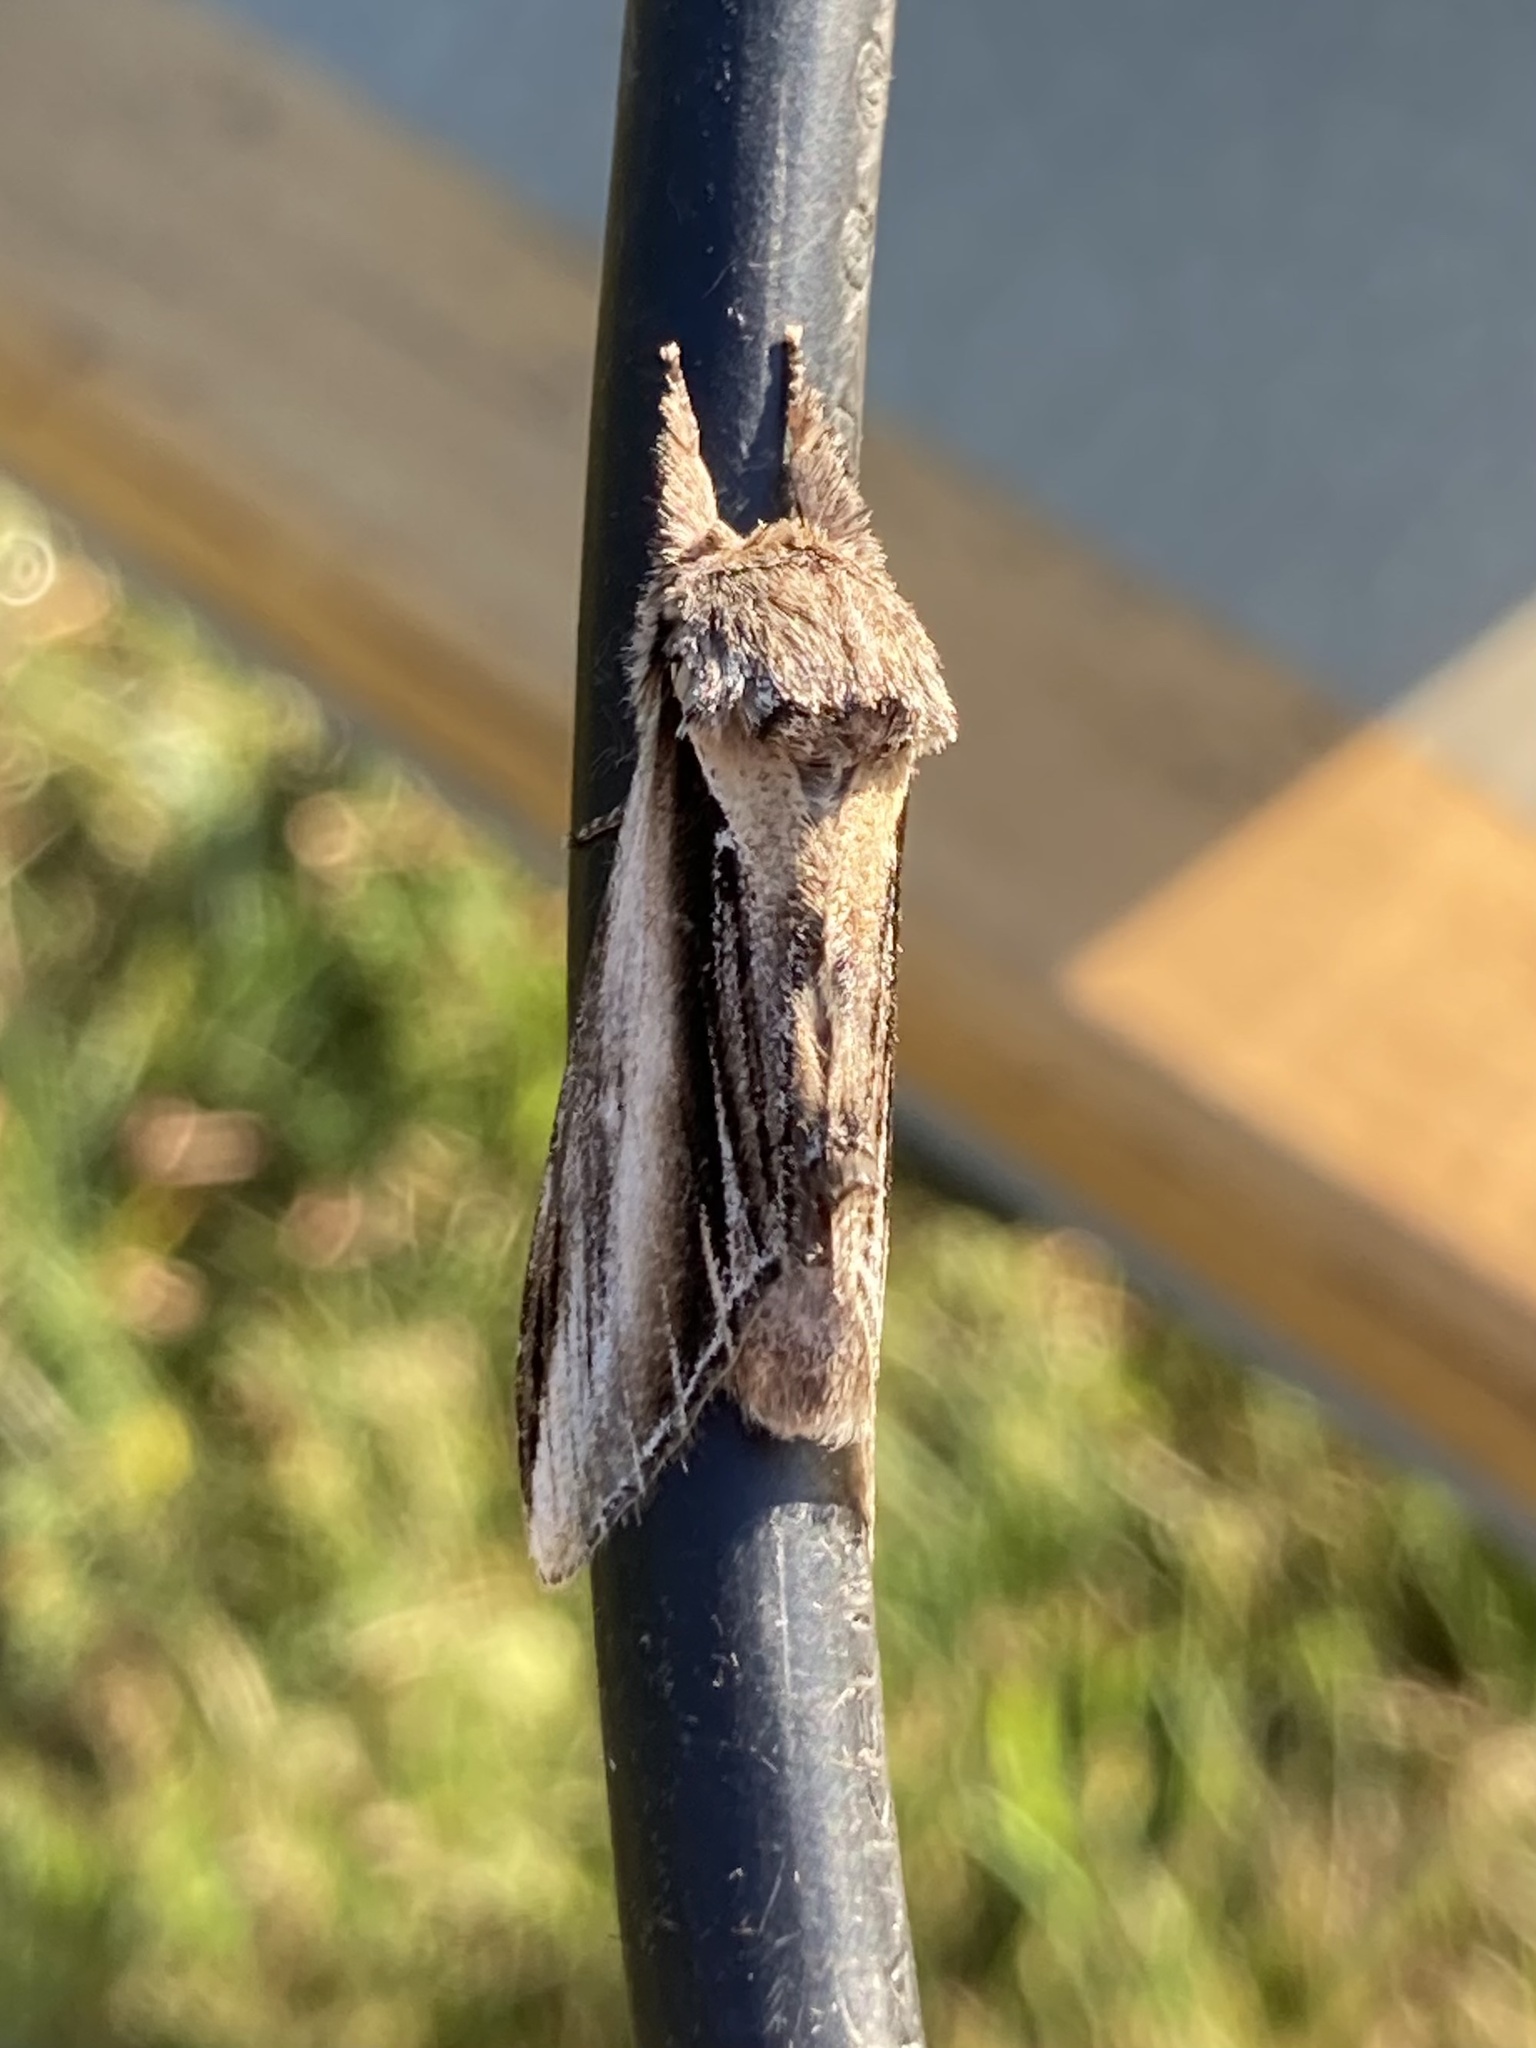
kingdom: Animalia
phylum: Arthropoda
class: Insecta
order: Lepidoptera
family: Notodontidae
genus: Pheosia
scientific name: Pheosia tremula
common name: Swallow prominent
